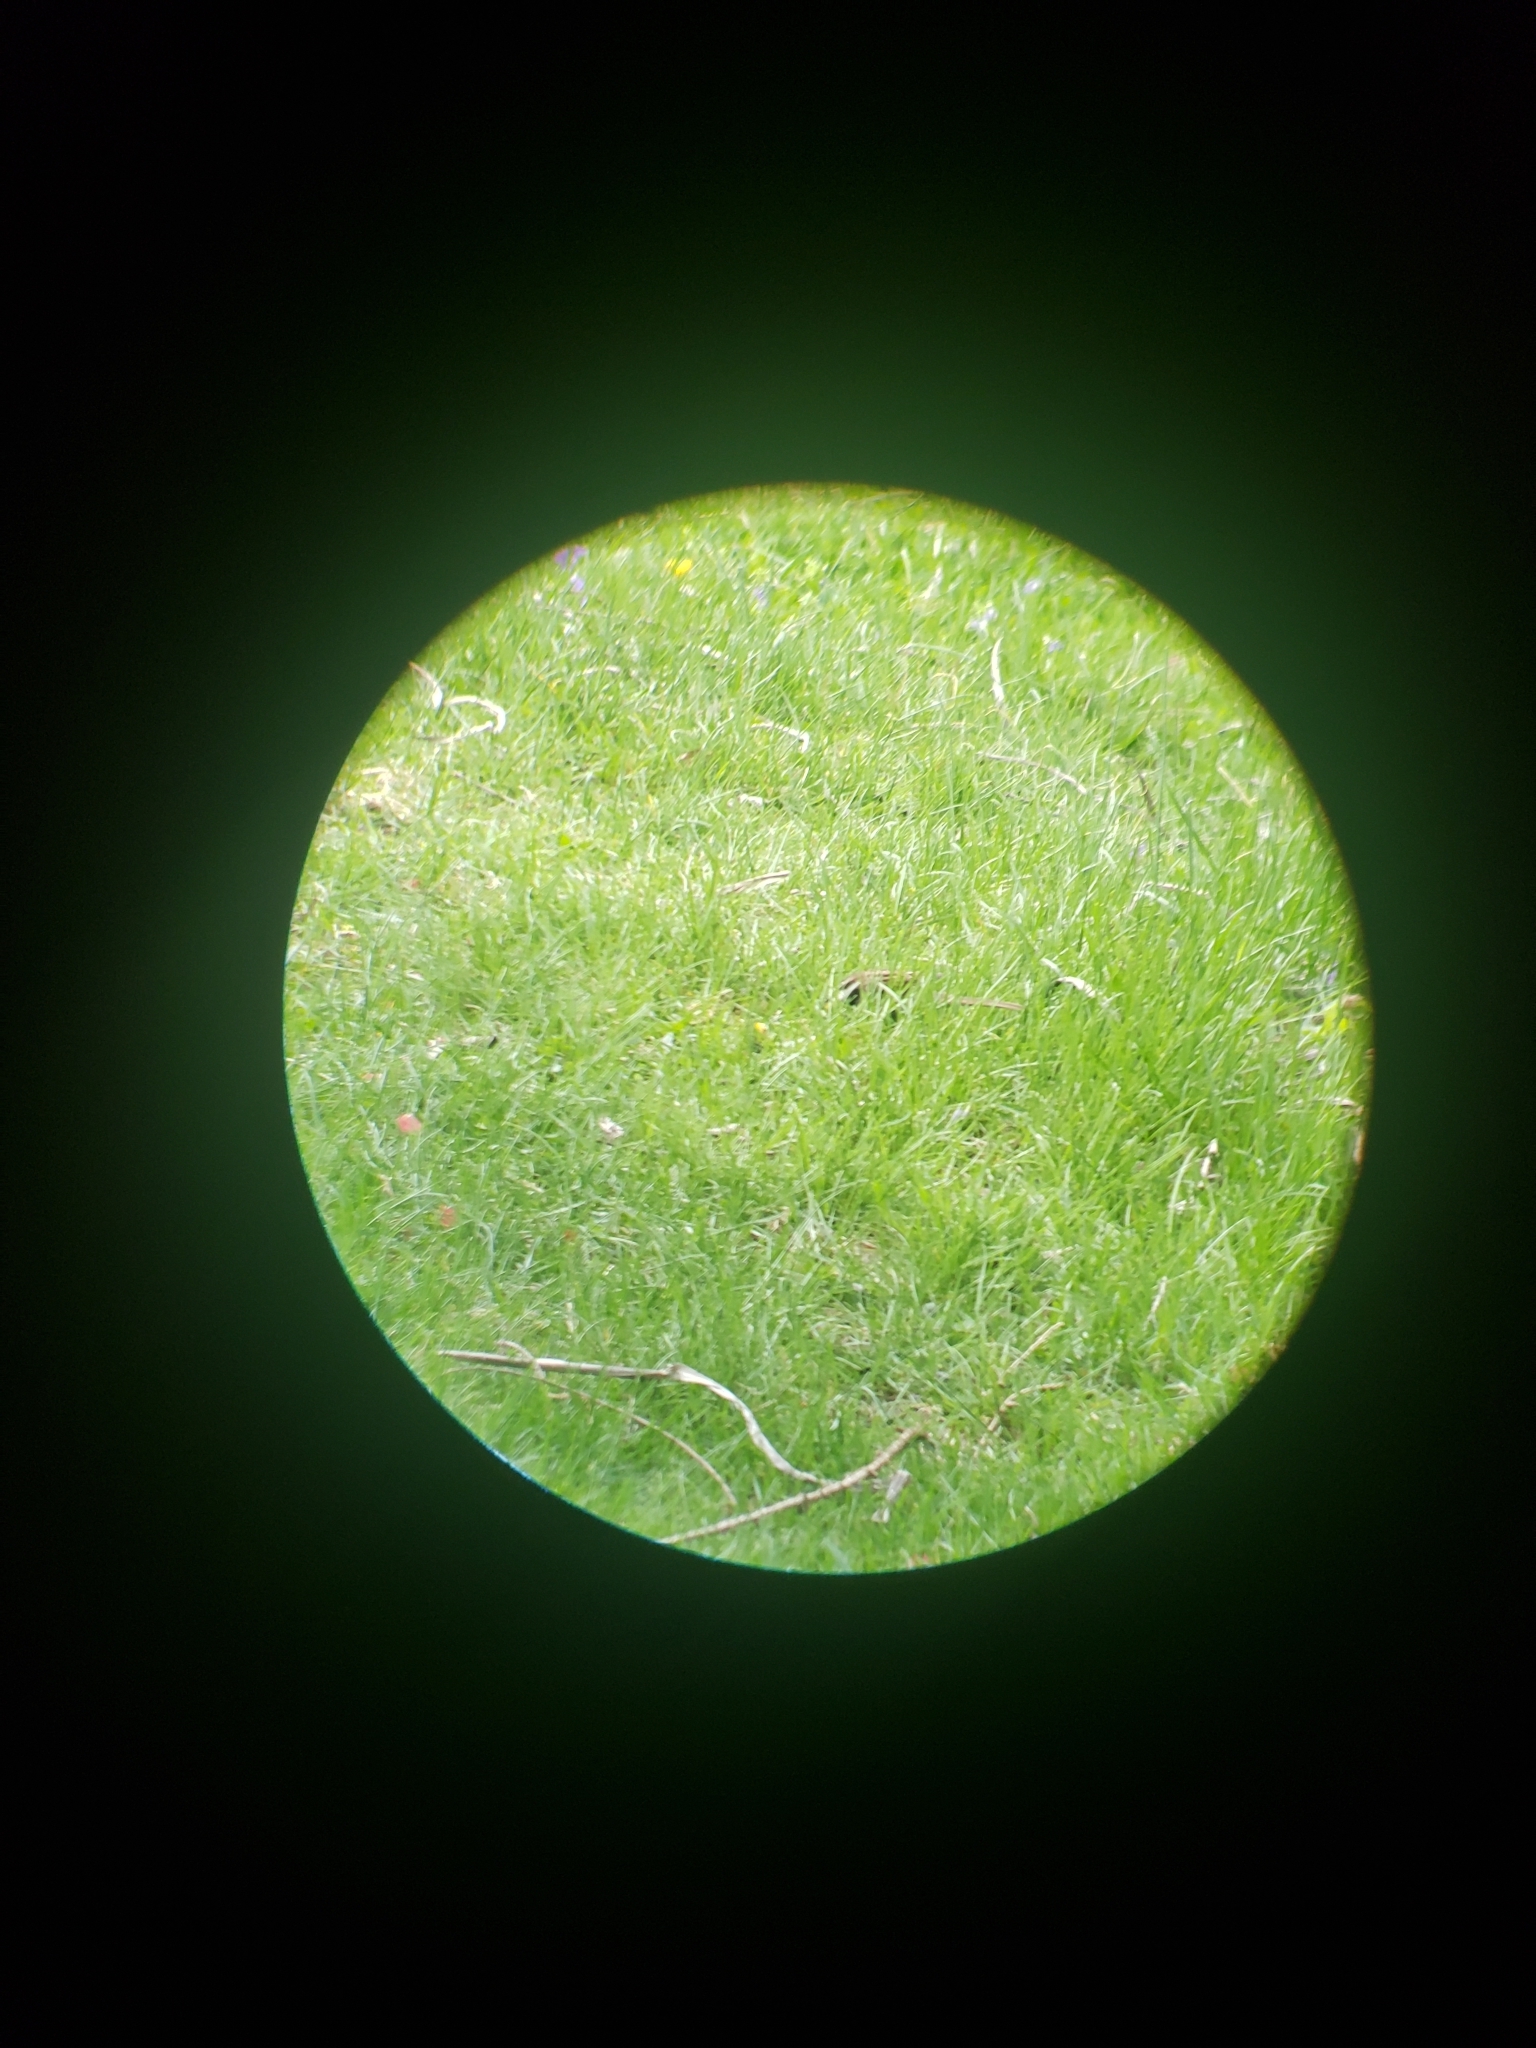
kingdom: Animalia
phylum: Chordata
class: Aves
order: Passeriformes
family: Passerellidae
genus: Zonotrichia
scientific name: Zonotrichia albicollis
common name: White-throated sparrow
